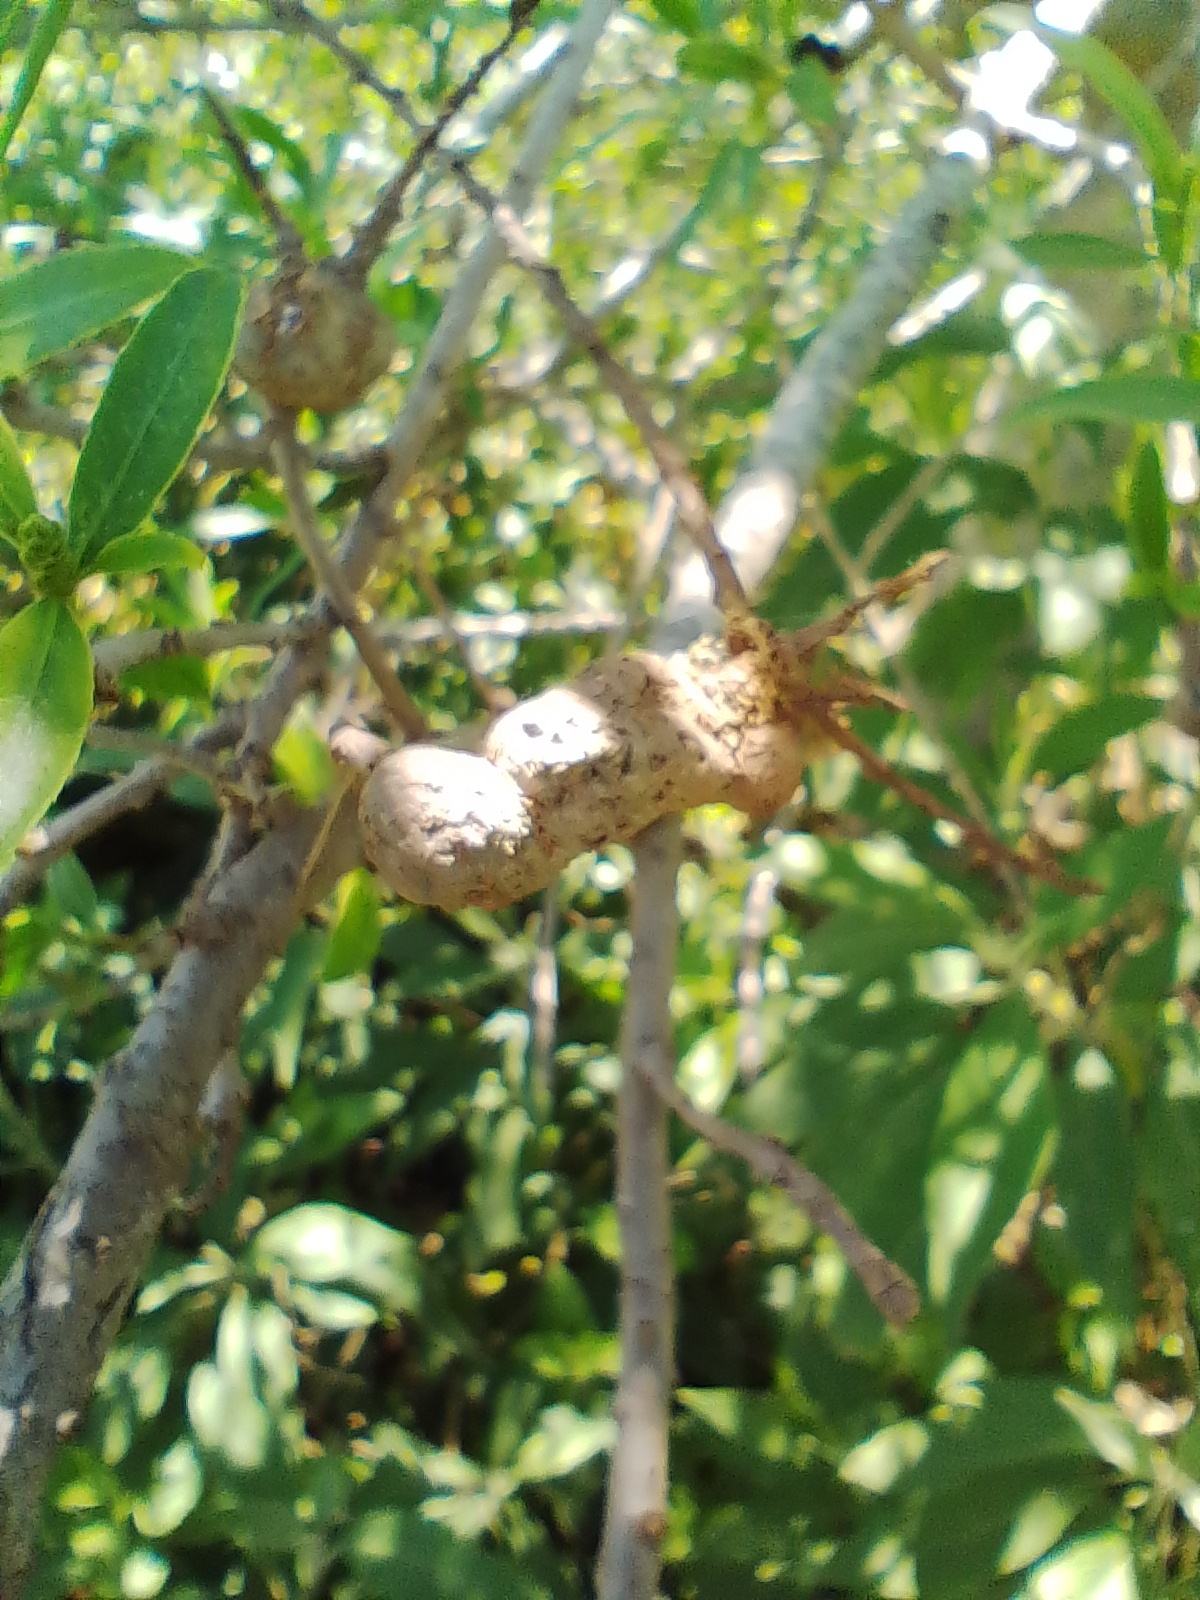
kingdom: Plantae
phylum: Tracheophyta
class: Magnoliopsida
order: Malpighiales
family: Euphorbiaceae
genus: Sapium
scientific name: Sapium haematospermum
